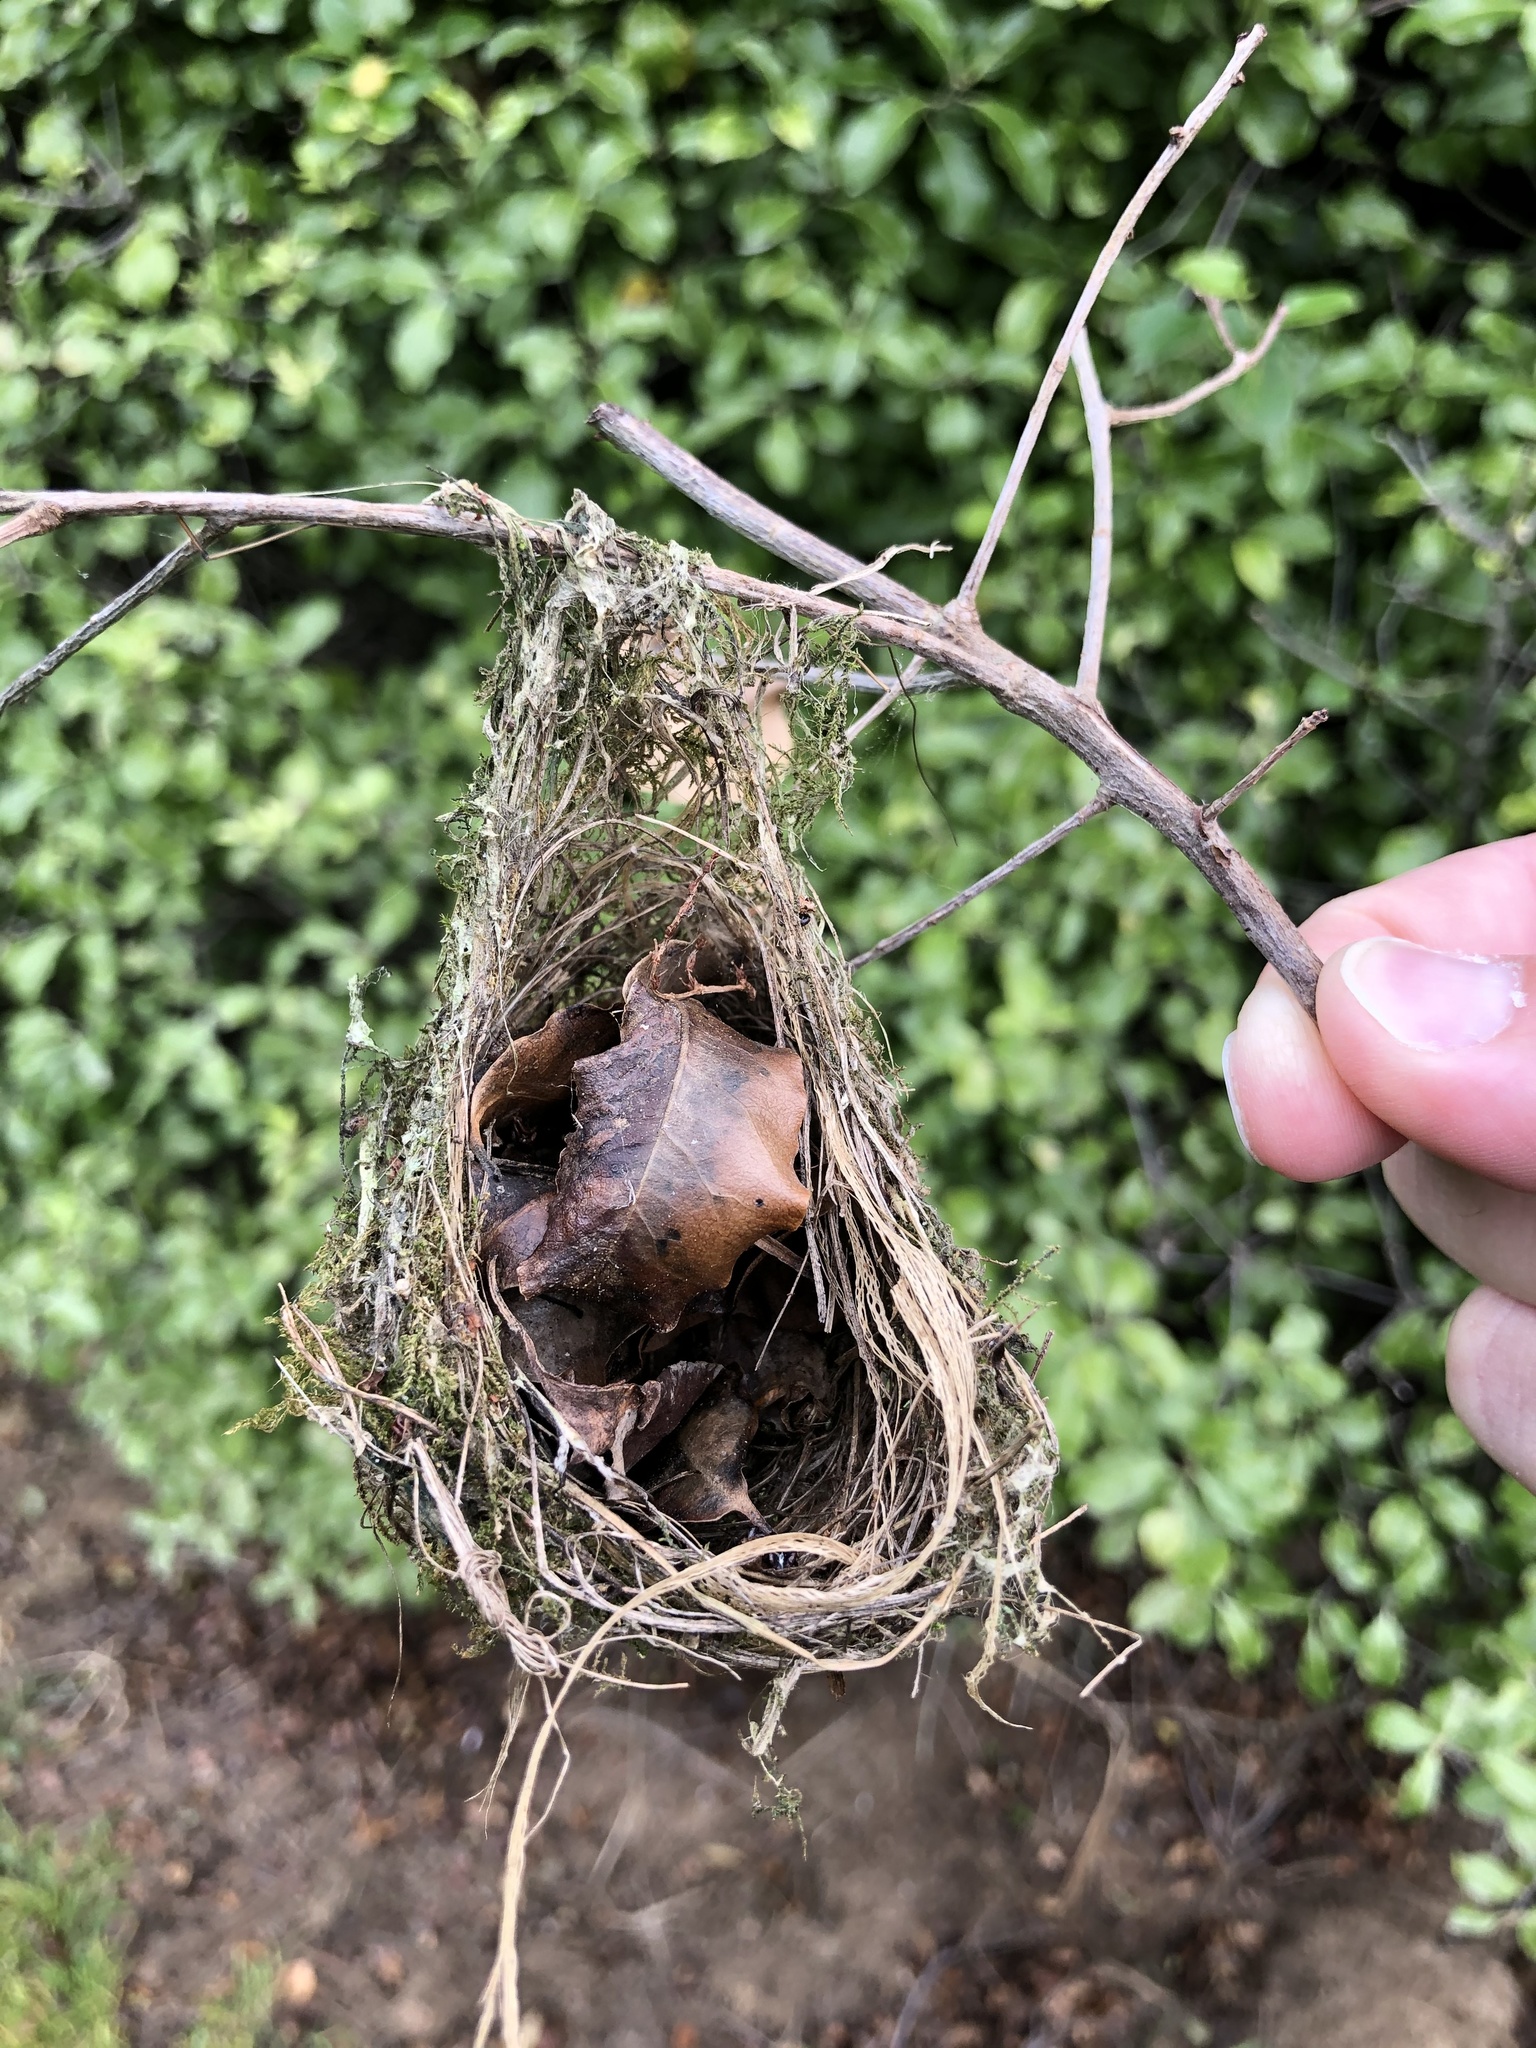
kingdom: Animalia
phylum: Chordata
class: Aves
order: Passeriformes
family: Zosteropidae
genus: Zosterops
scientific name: Zosterops lateralis
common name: Silvereye
